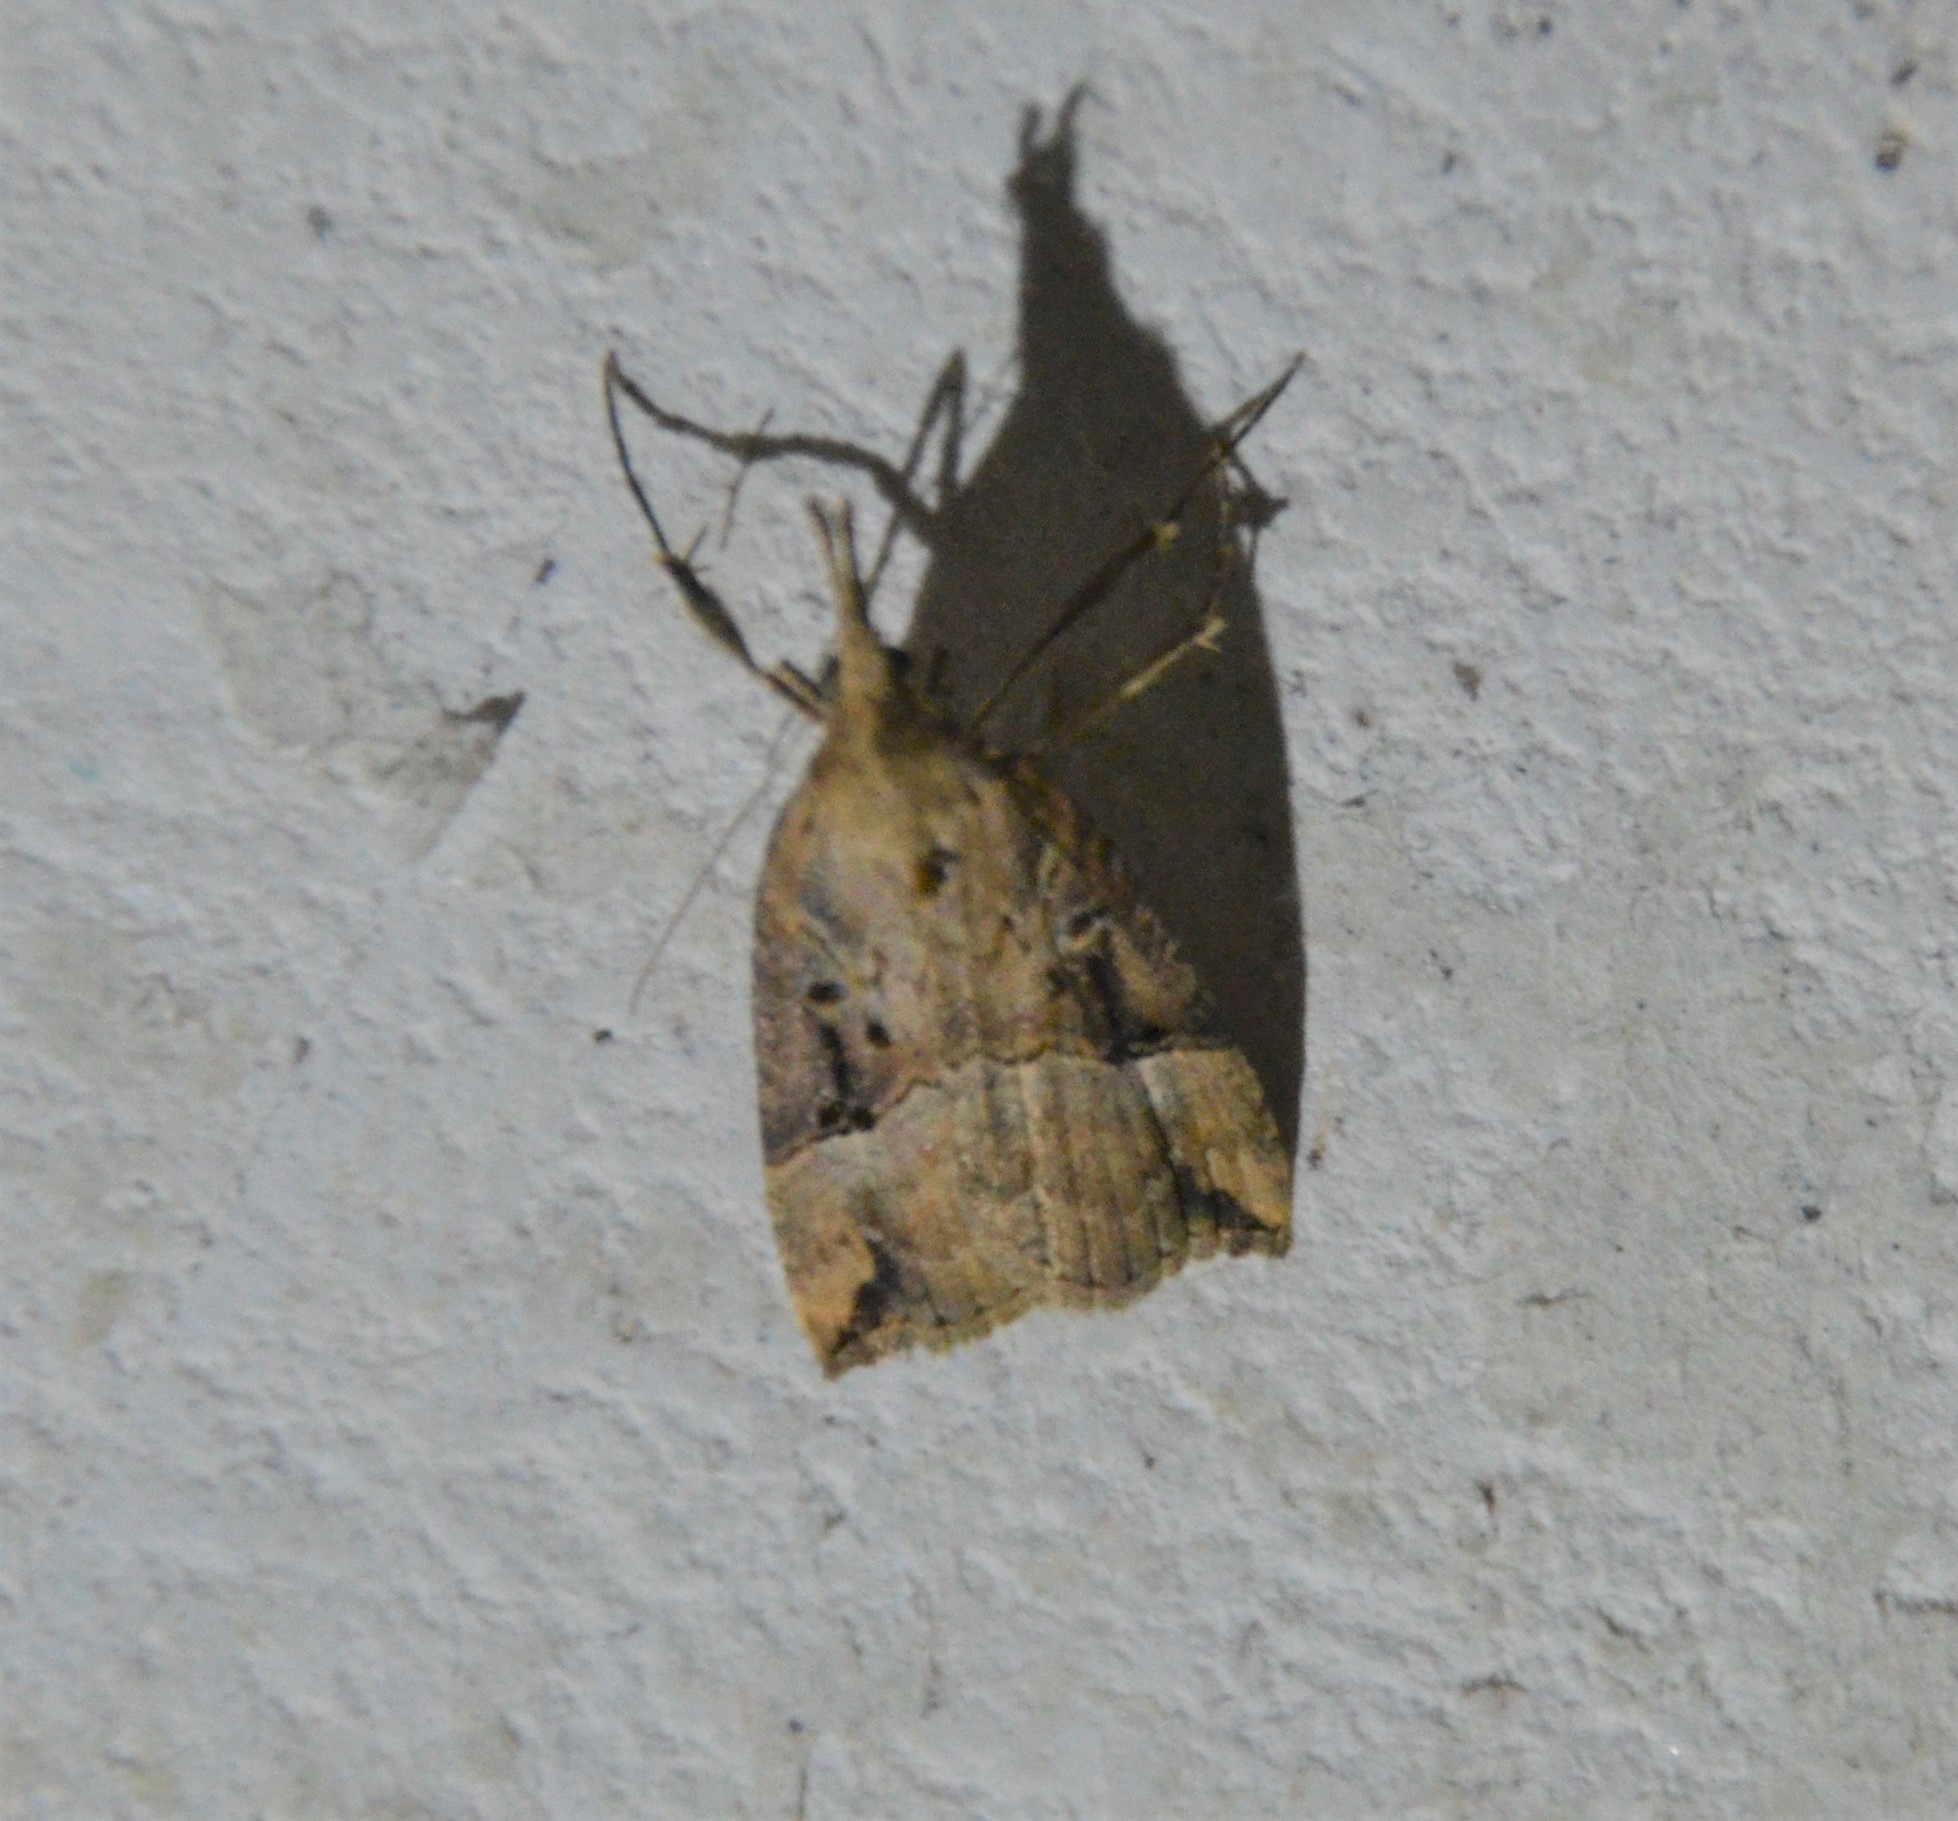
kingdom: Animalia
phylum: Arthropoda
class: Insecta
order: Lepidoptera
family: Erebidae
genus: Hypena
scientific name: Hypena rostralis
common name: Buttoned snout
